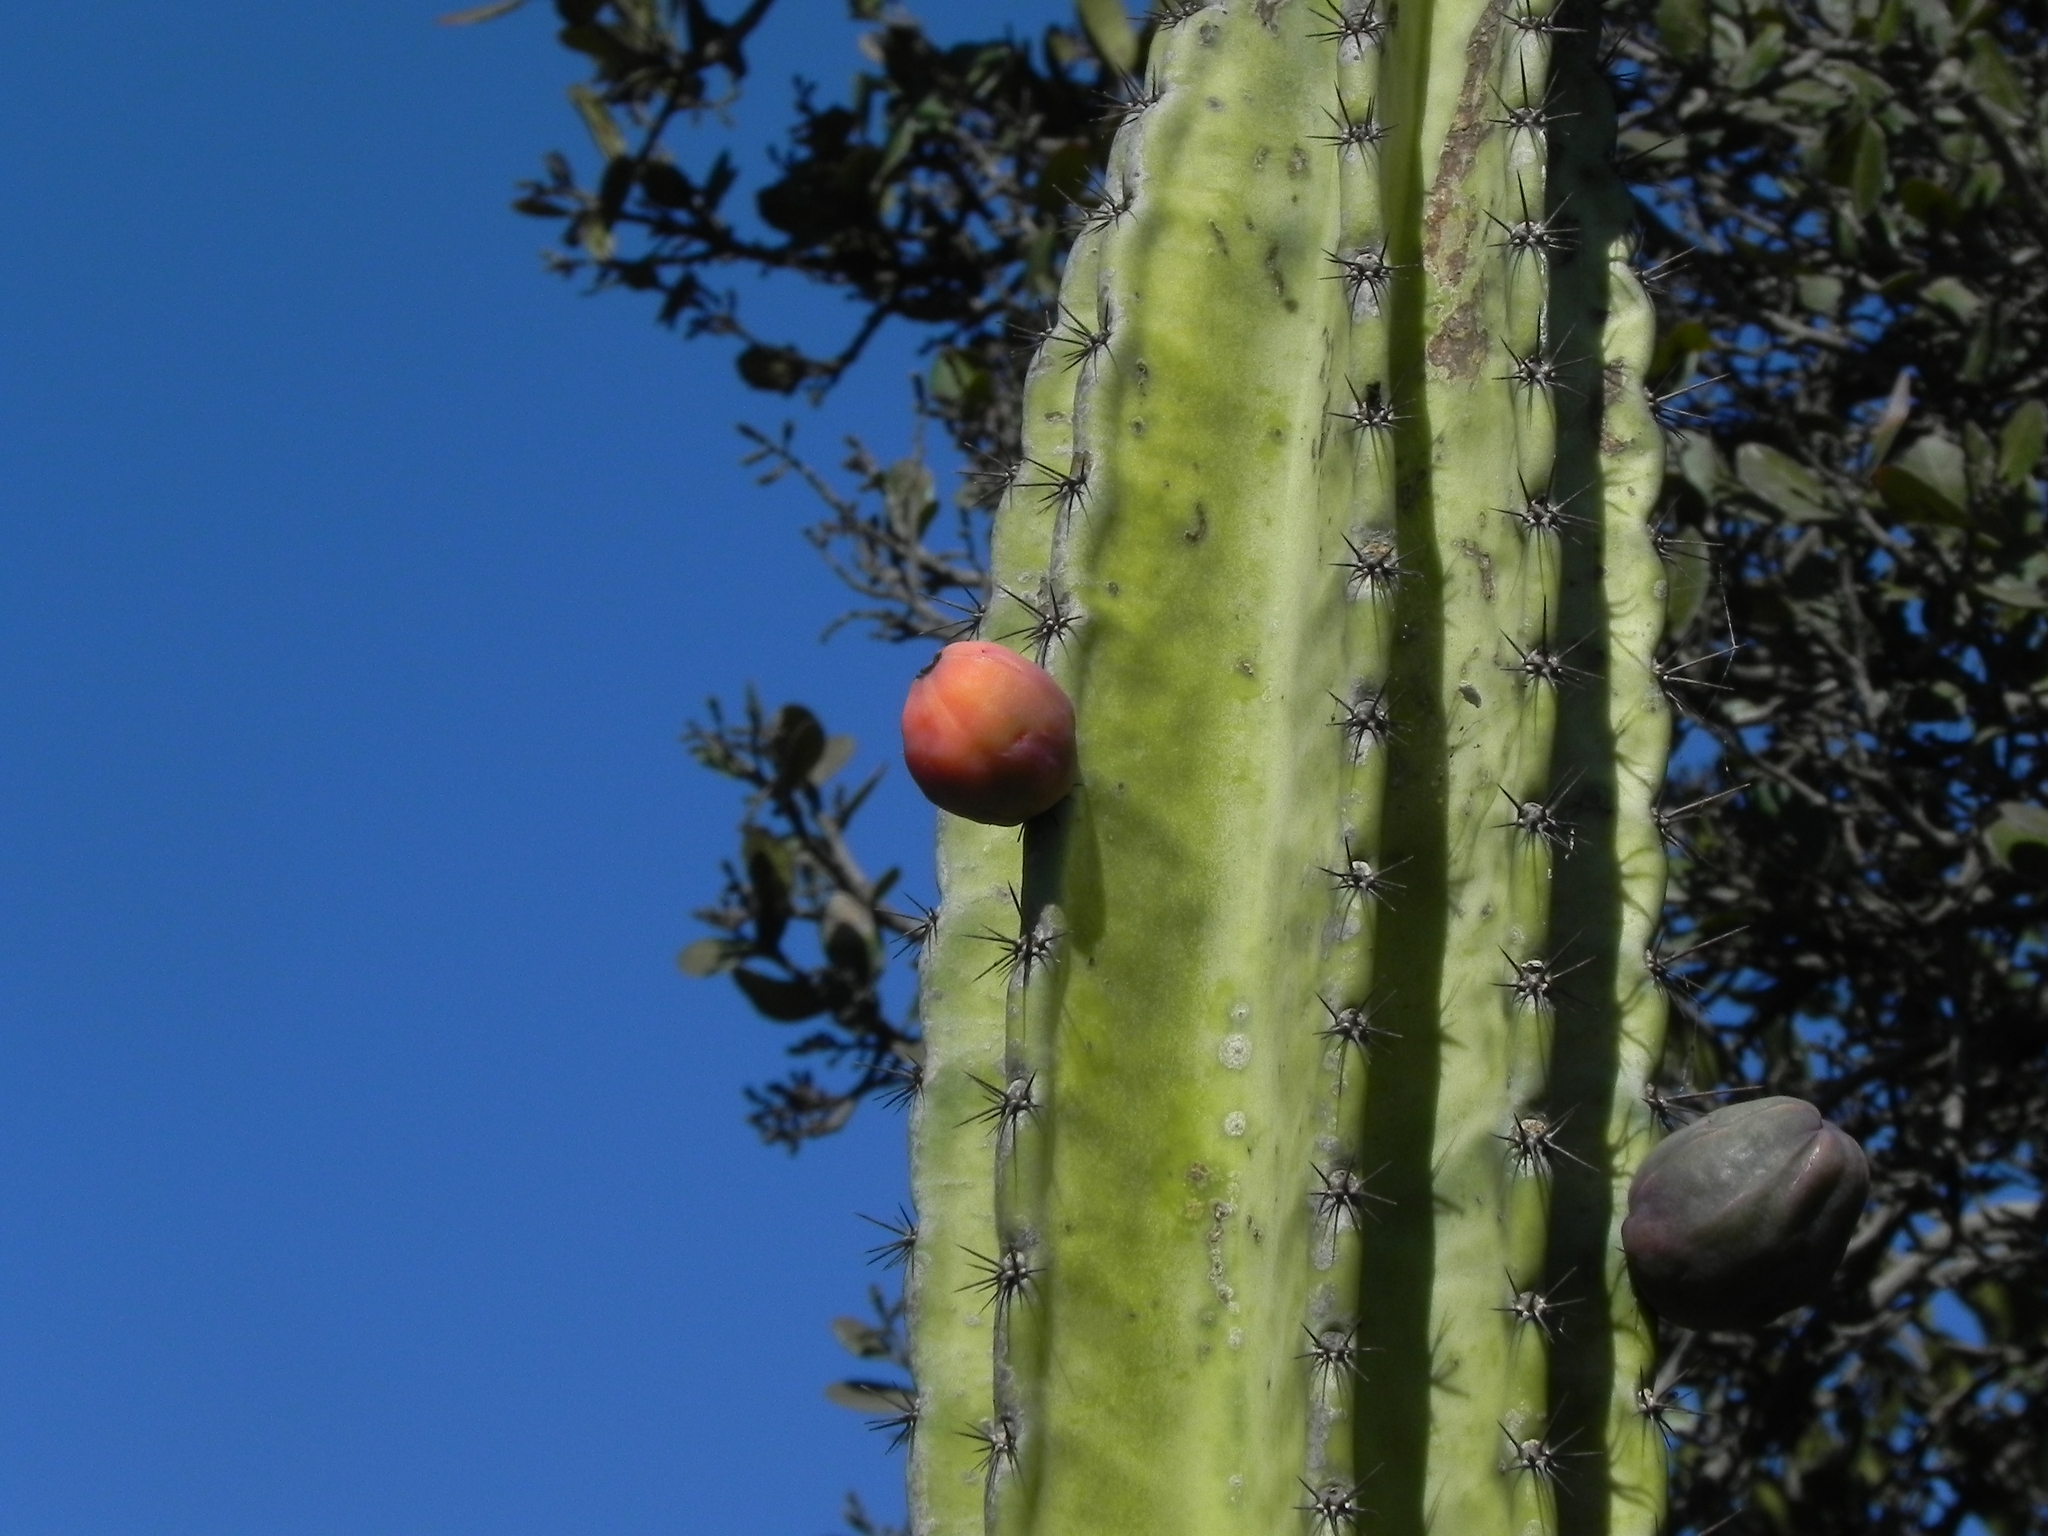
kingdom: Plantae
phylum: Tracheophyta
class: Magnoliopsida
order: Caryophyllales
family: Cactaceae
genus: Cereus
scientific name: Cereus repandus
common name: Sweetpotato cactus
